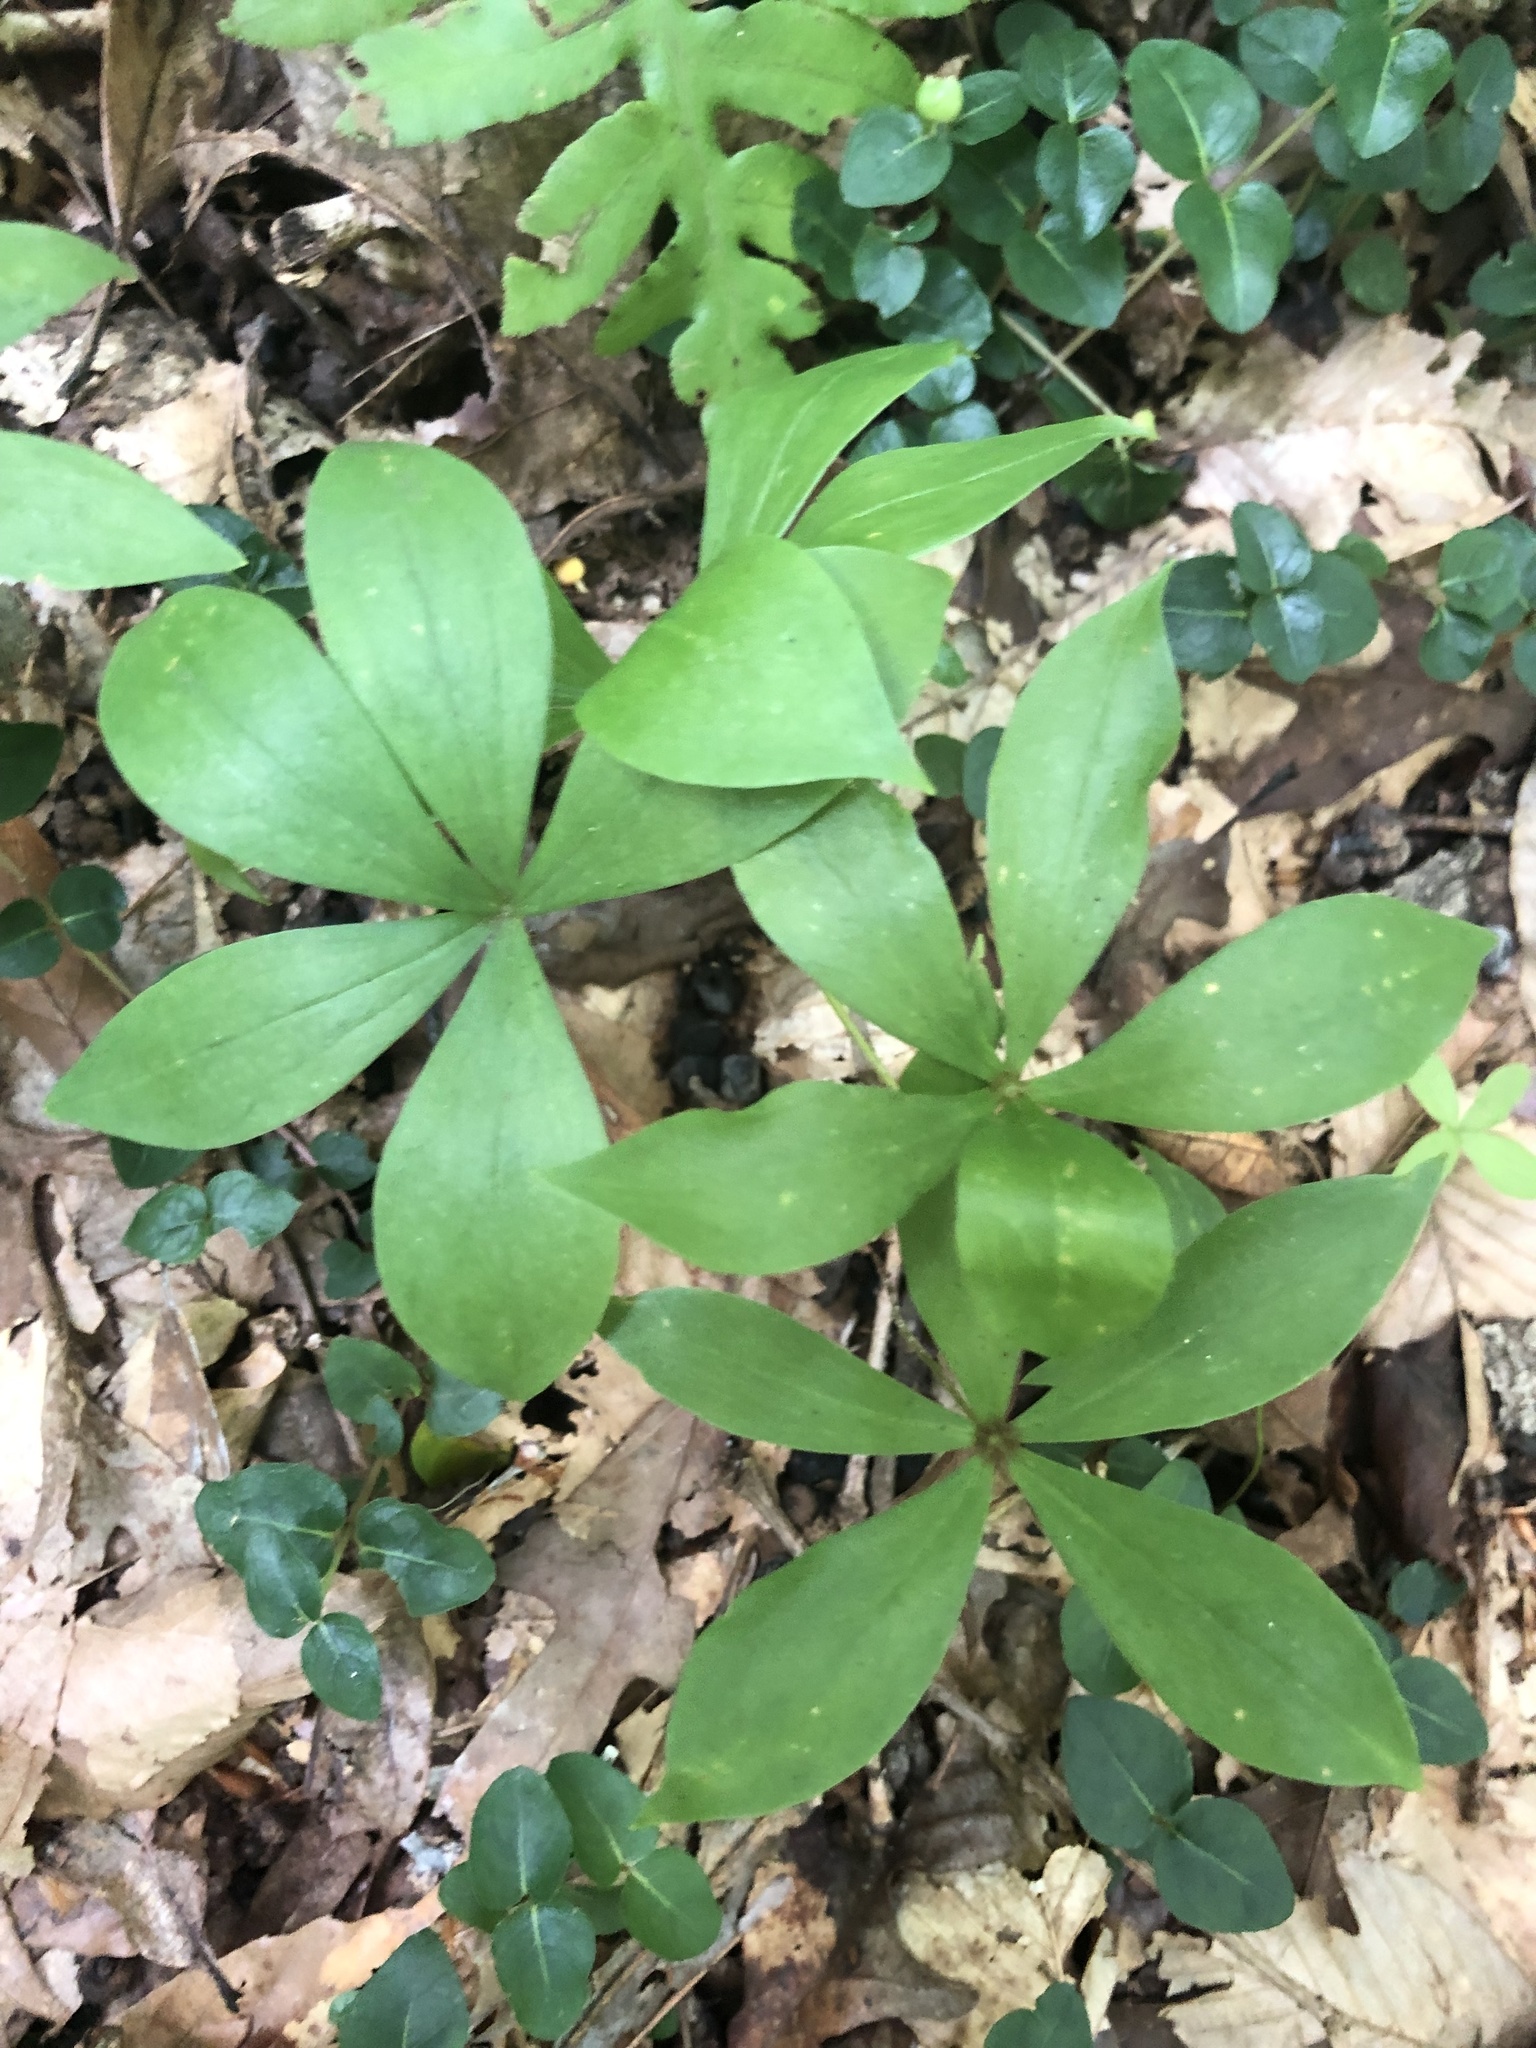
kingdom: Plantae
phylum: Tracheophyta
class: Liliopsida
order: Liliales
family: Liliaceae
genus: Medeola
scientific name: Medeola virginiana
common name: Indian cucumber-root
